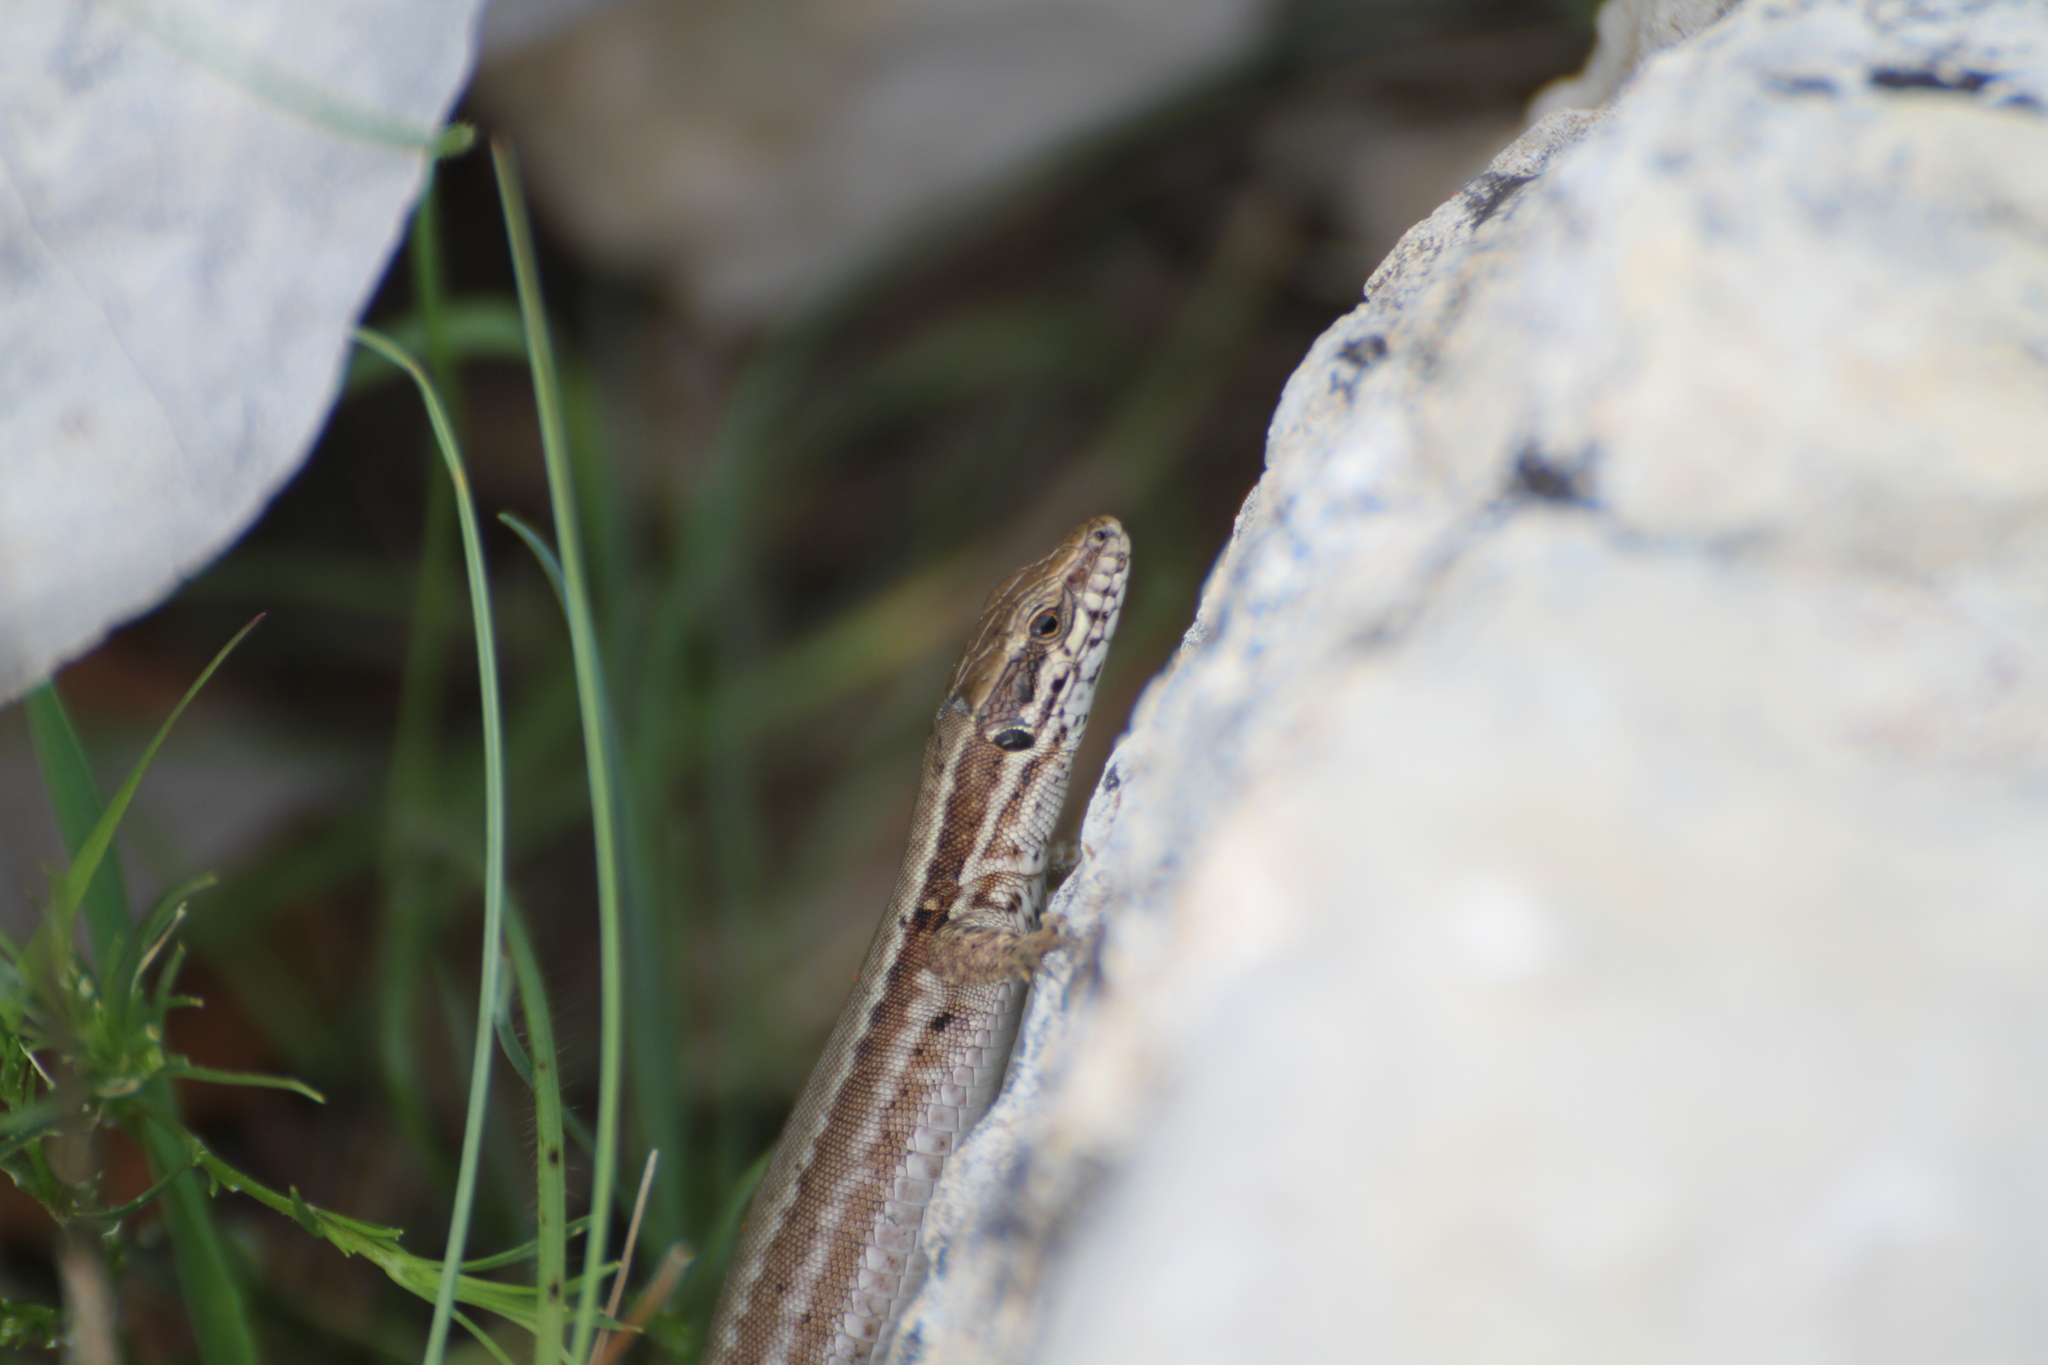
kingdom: Animalia
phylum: Chordata
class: Squamata
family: Lacertidae
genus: Podarcis
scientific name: Podarcis muralis
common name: Common wall lizard
